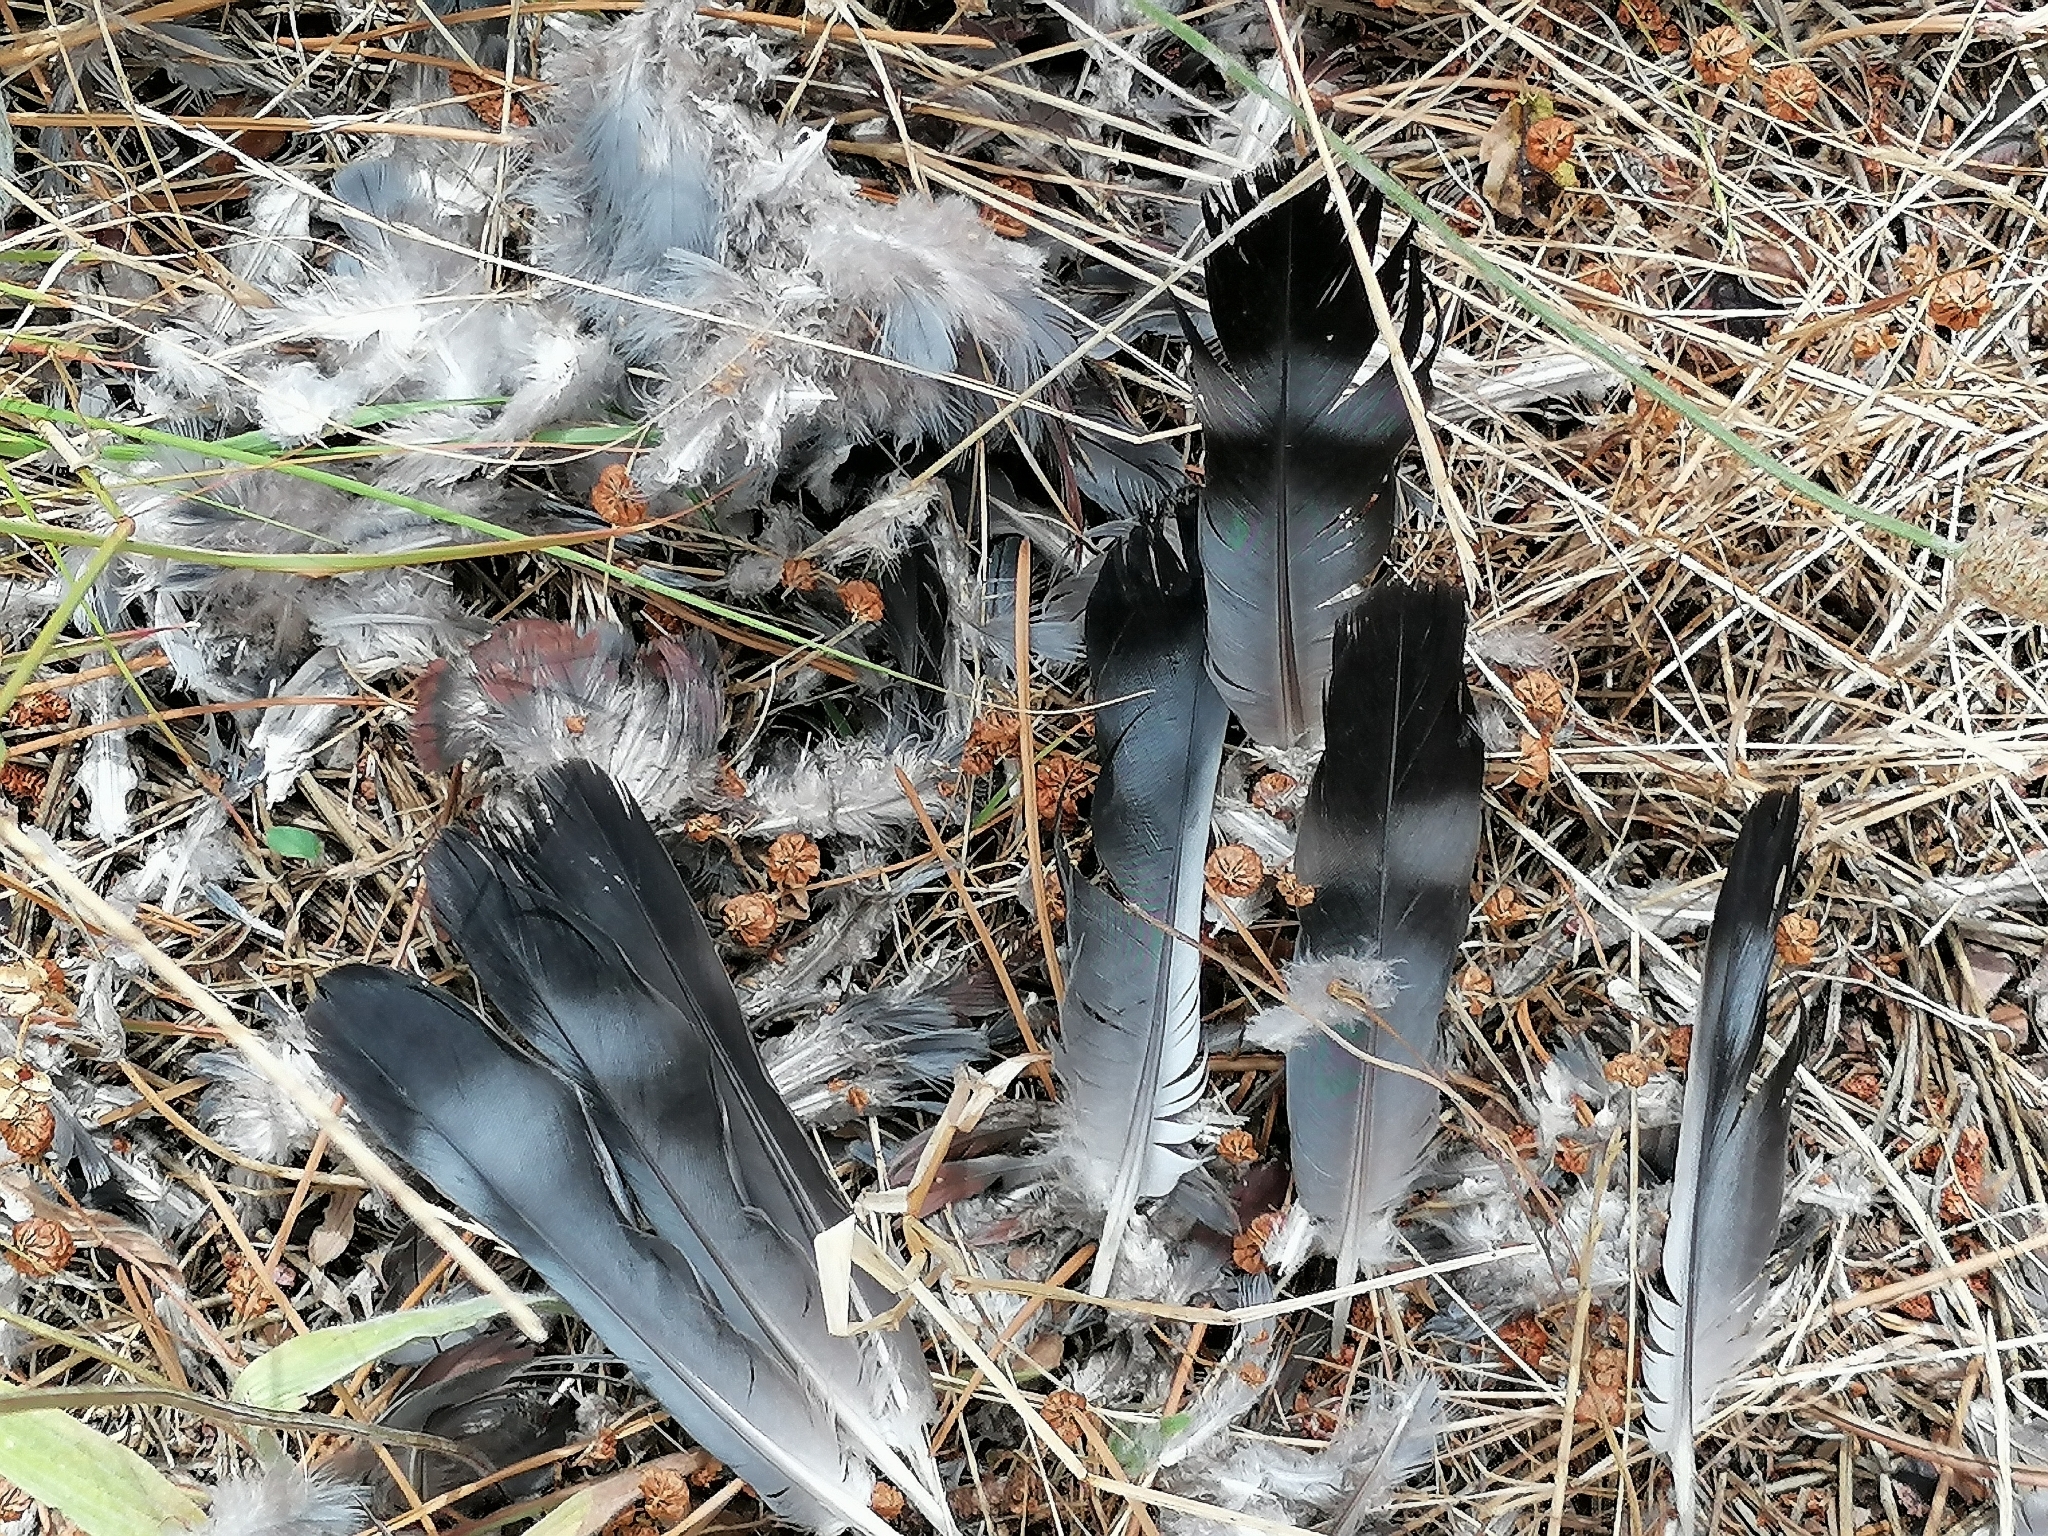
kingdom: Animalia
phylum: Chordata
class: Aves
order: Columbiformes
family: Columbidae
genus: Columba
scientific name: Columba guinea
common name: Speckled pigeon
